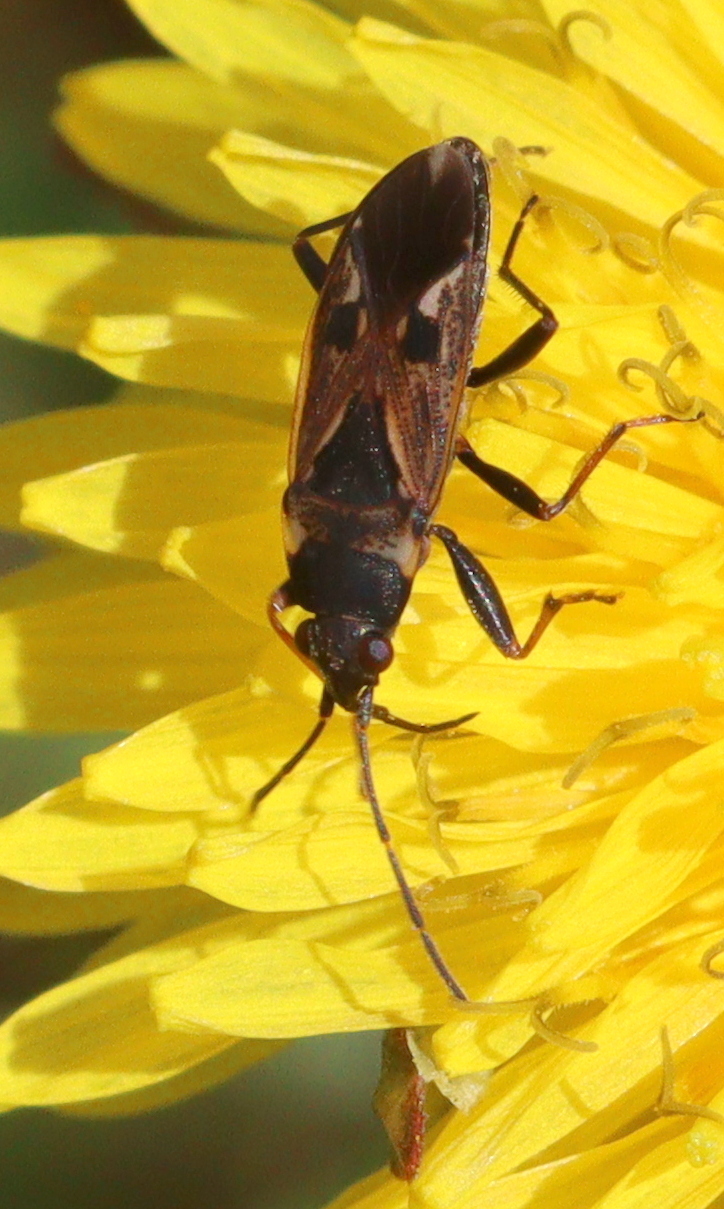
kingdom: Animalia
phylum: Arthropoda
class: Insecta
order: Hemiptera
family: Rhyparochromidae
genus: Rhyparochromus
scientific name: Rhyparochromus vulgaris
